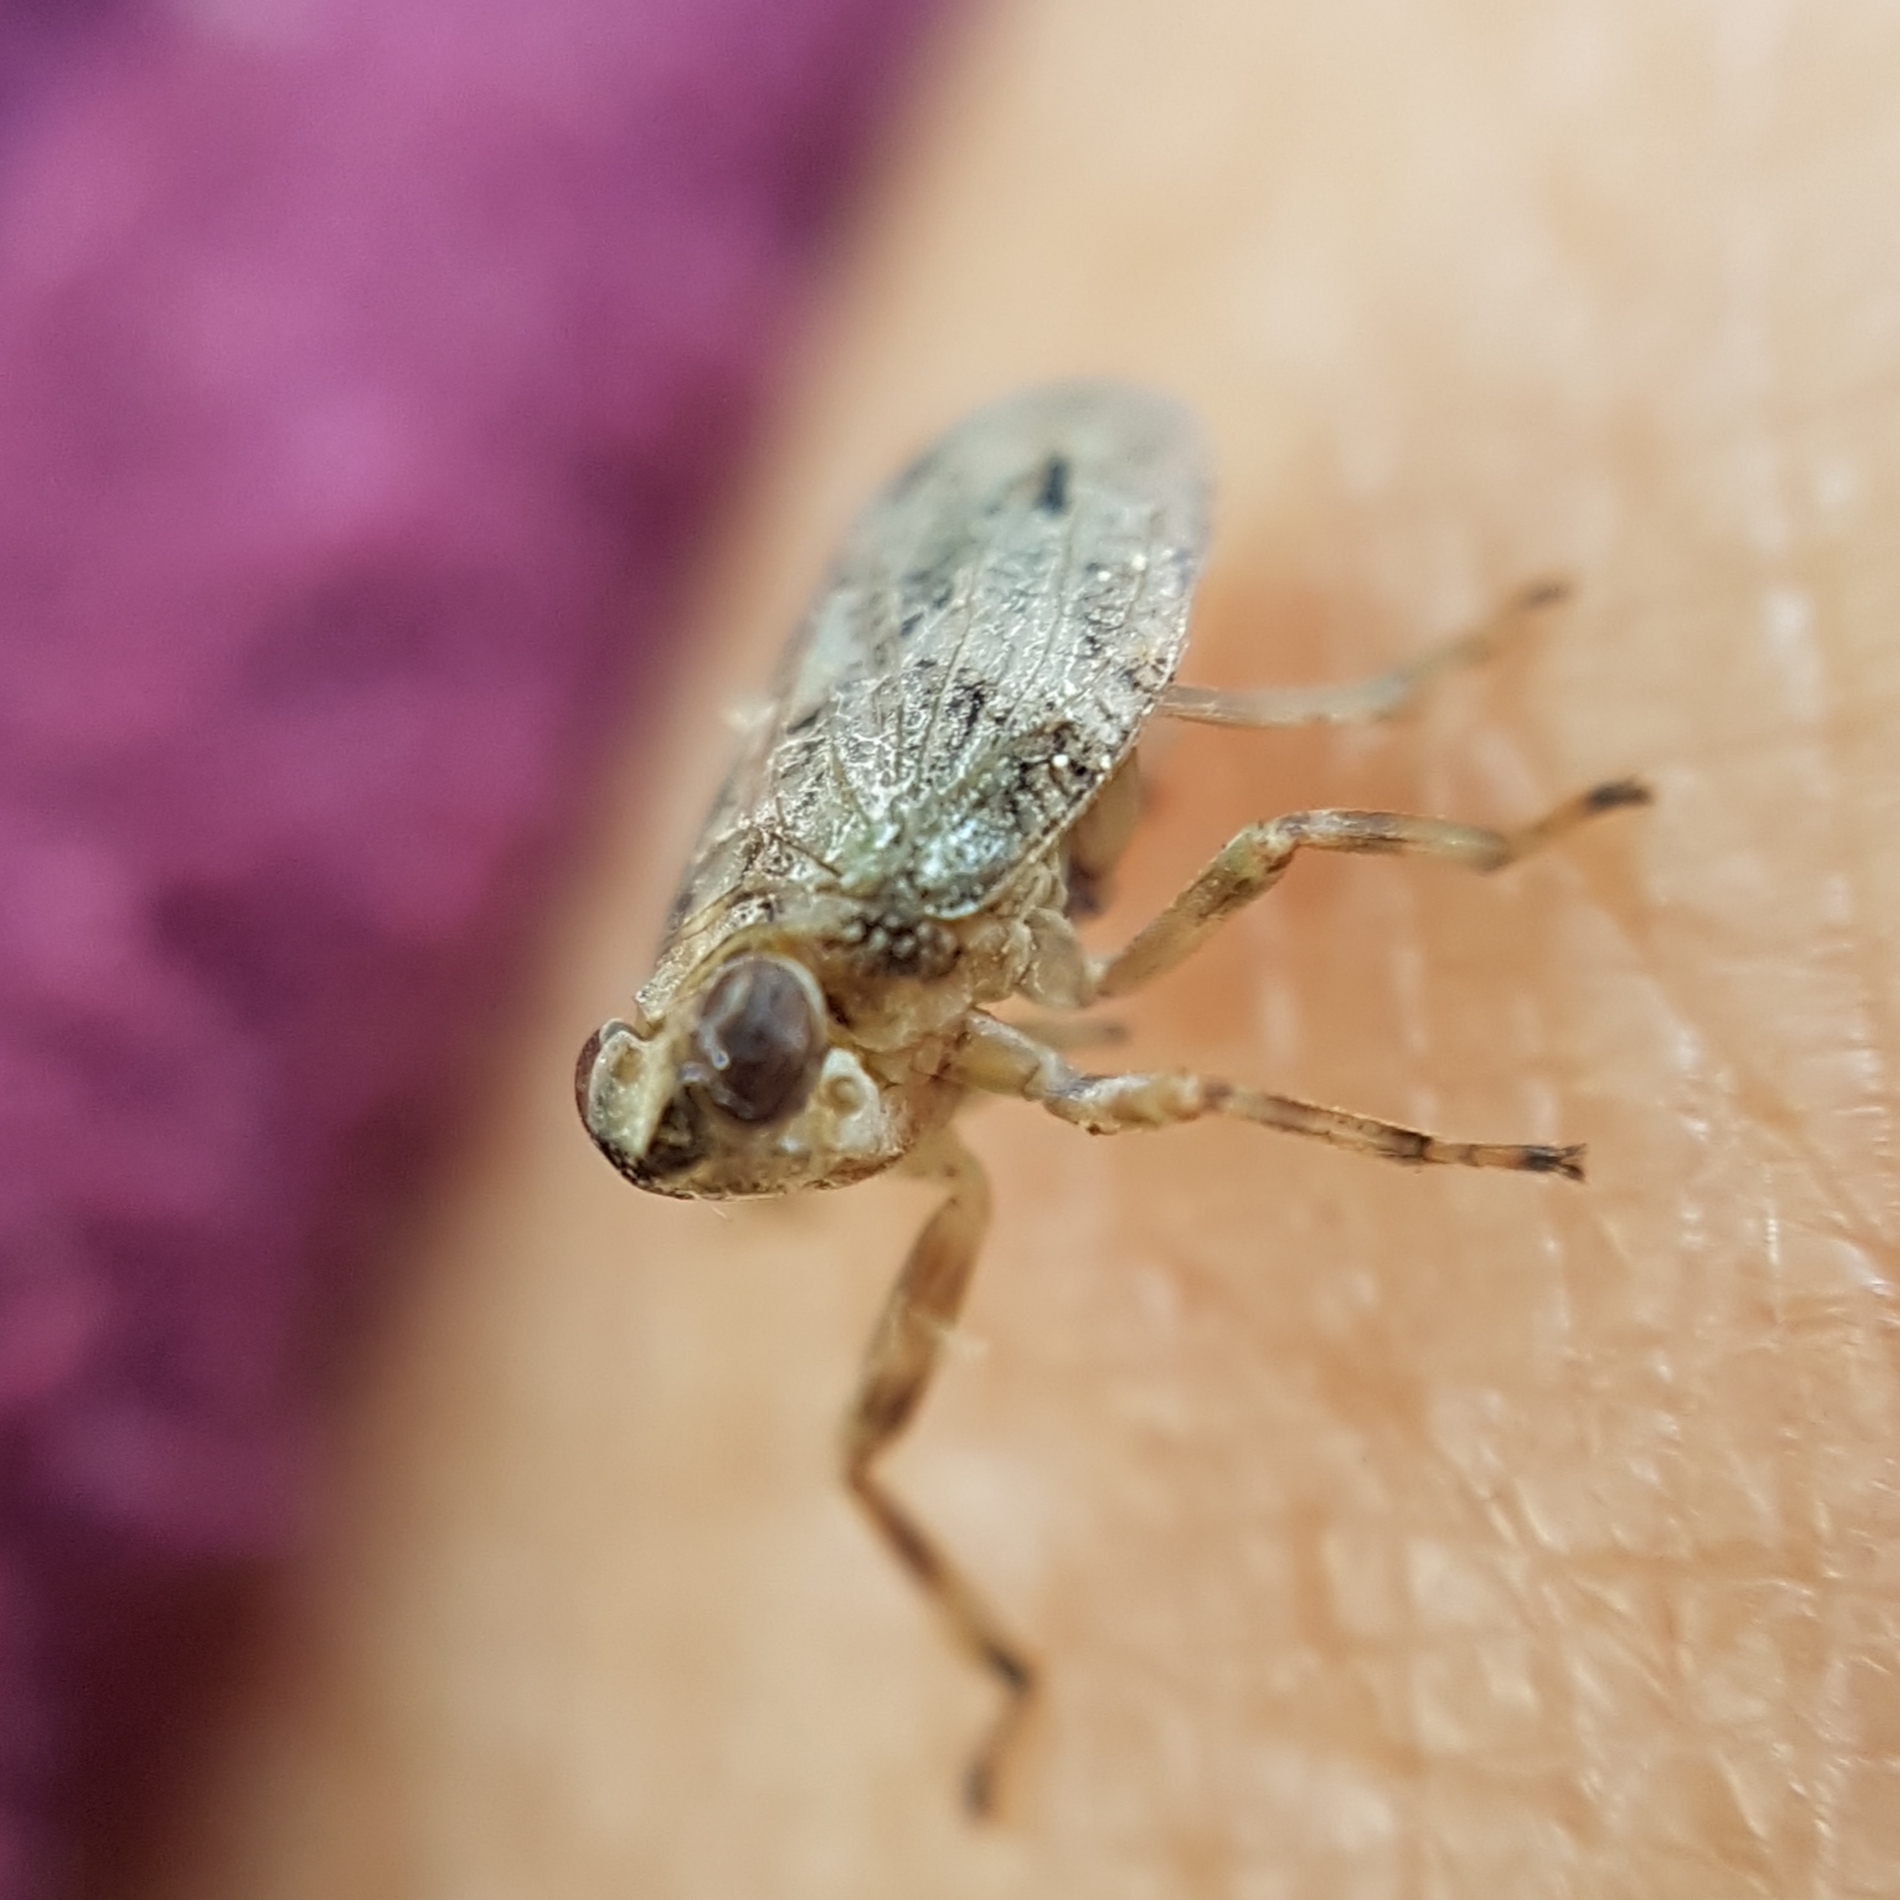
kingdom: Animalia
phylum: Arthropoda
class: Insecta
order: Hemiptera
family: Issidae
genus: Issus
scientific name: Issus coleoptratus
